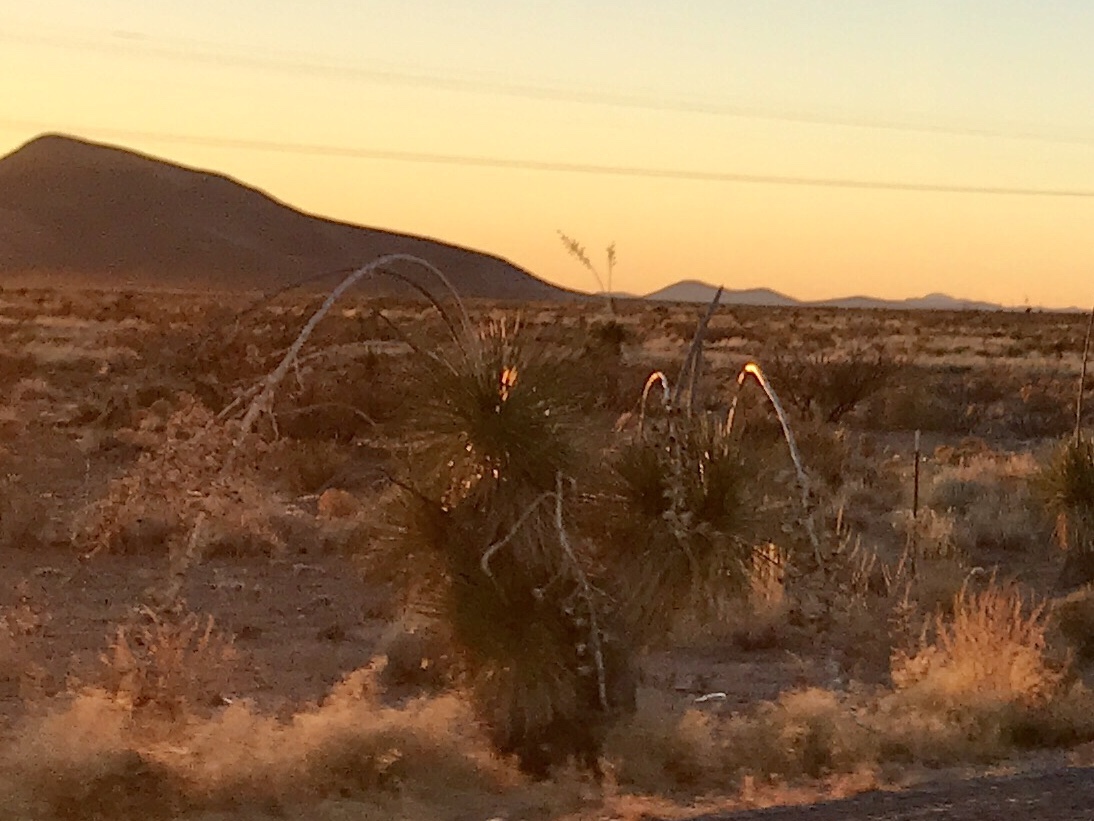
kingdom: Plantae
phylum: Tracheophyta
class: Liliopsida
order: Asparagales
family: Asparagaceae
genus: Yucca
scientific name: Yucca elata
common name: Palmella
